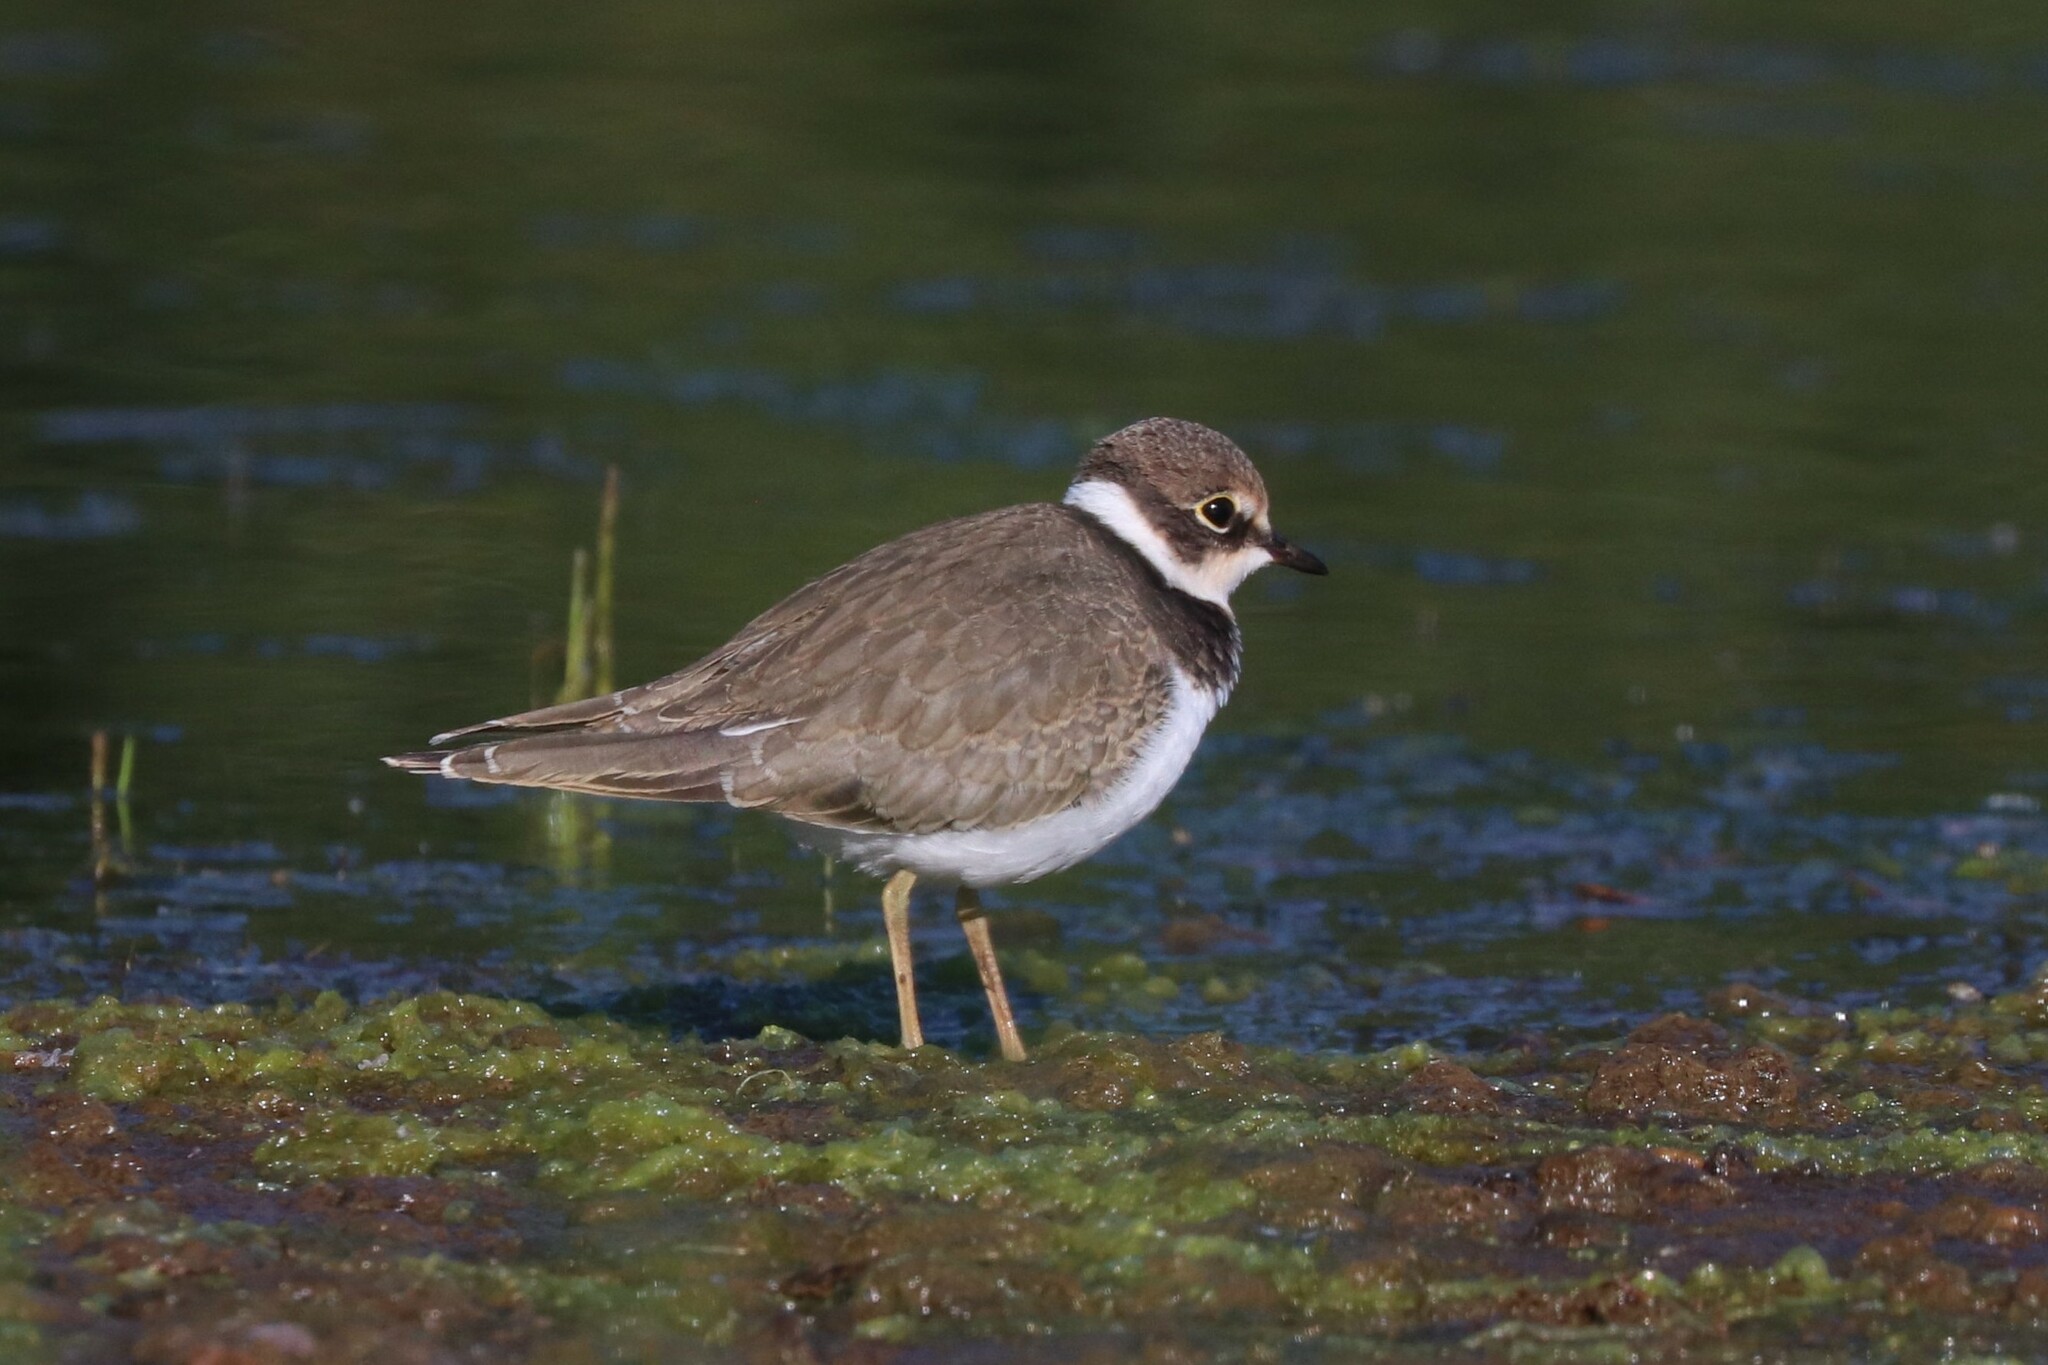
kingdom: Animalia
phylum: Chordata
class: Aves
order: Charadriiformes
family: Charadriidae
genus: Charadrius
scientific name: Charadrius dubius
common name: Little ringed plover
